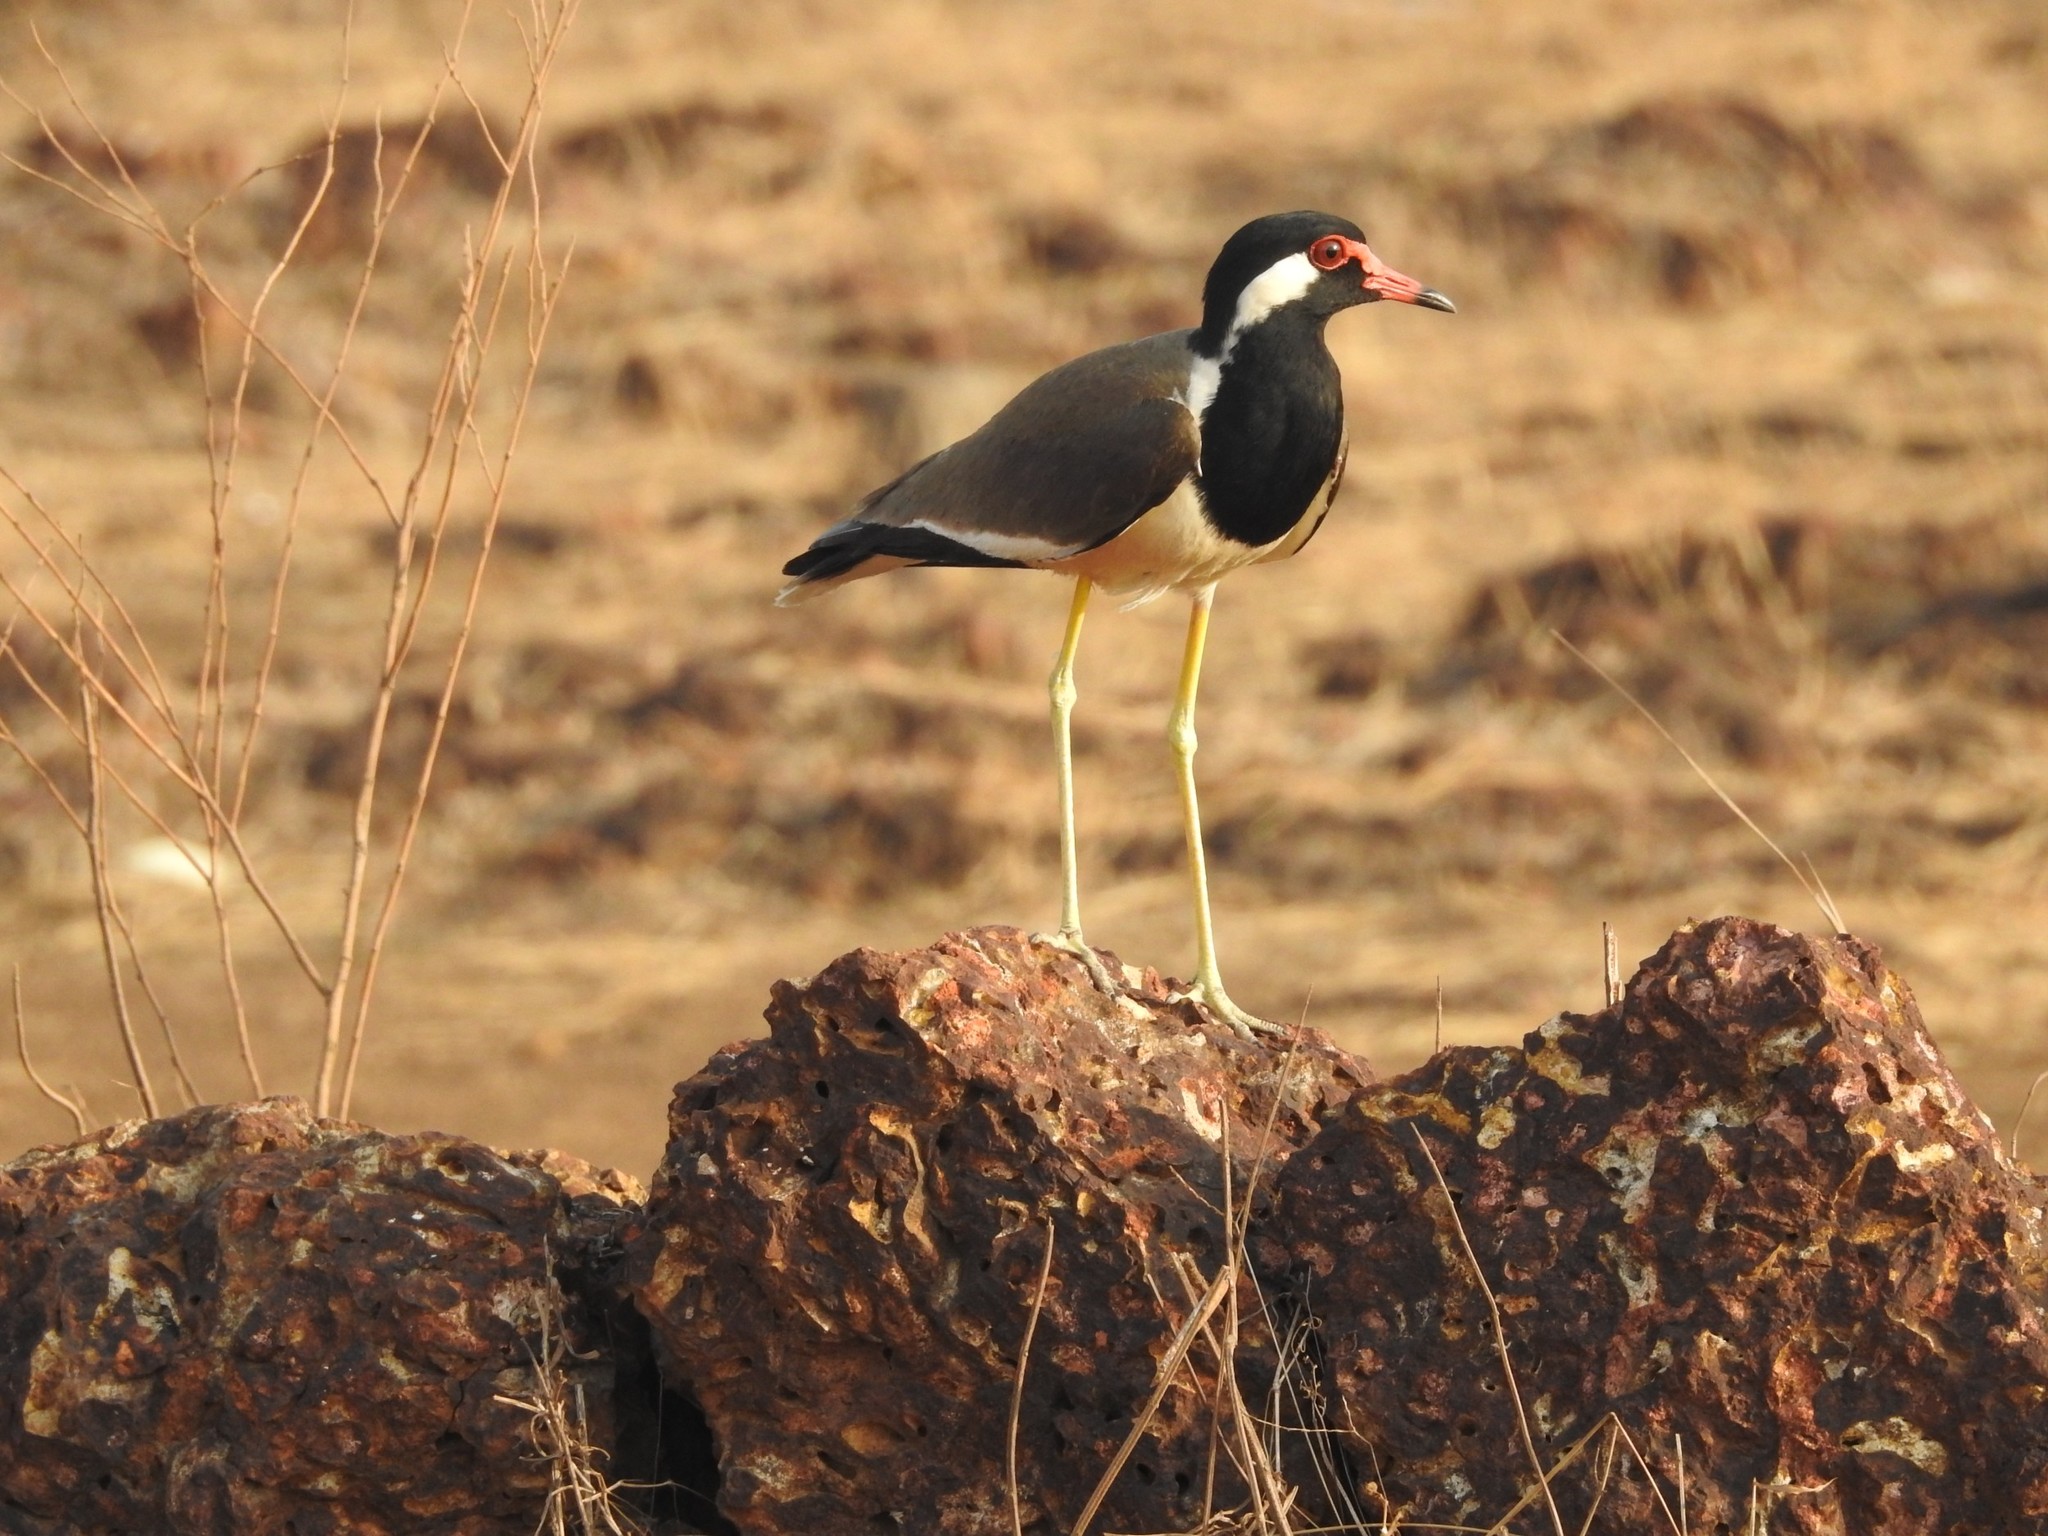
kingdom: Animalia
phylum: Chordata
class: Aves
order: Charadriiformes
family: Charadriidae
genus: Vanellus
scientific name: Vanellus indicus
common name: Red-wattled lapwing
